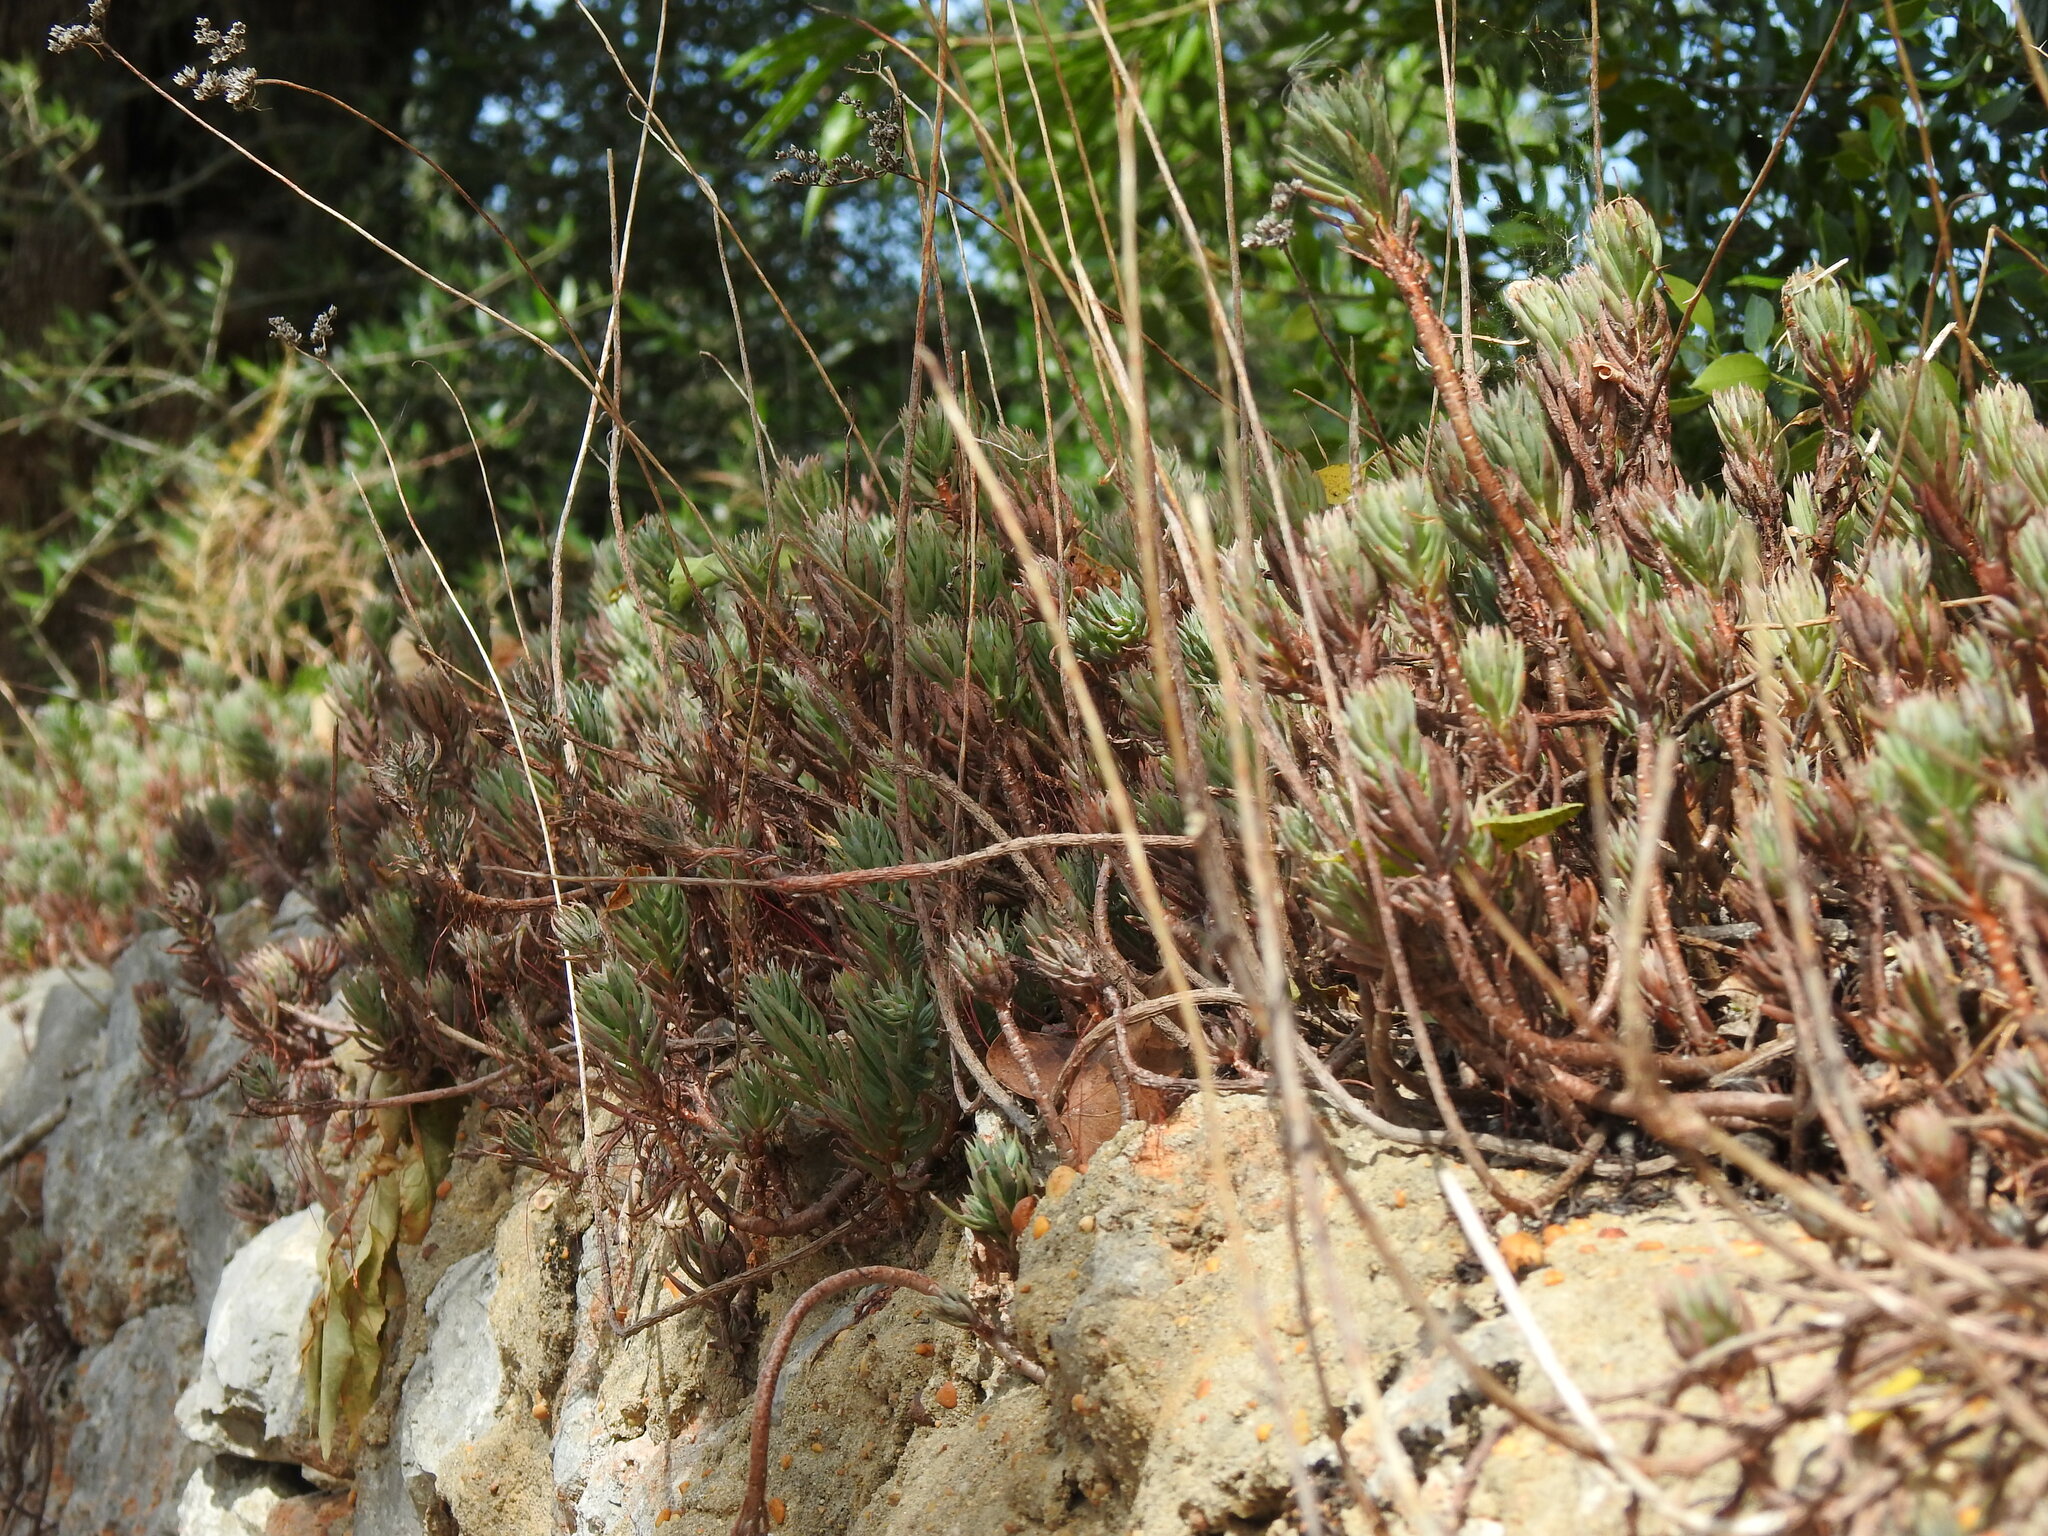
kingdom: Plantae
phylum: Tracheophyta
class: Magnoliopsida
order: Saxifragales
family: Crassulaceae
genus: Petrosedum
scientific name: Petrosedum sediforme
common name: Pale stonecrop
